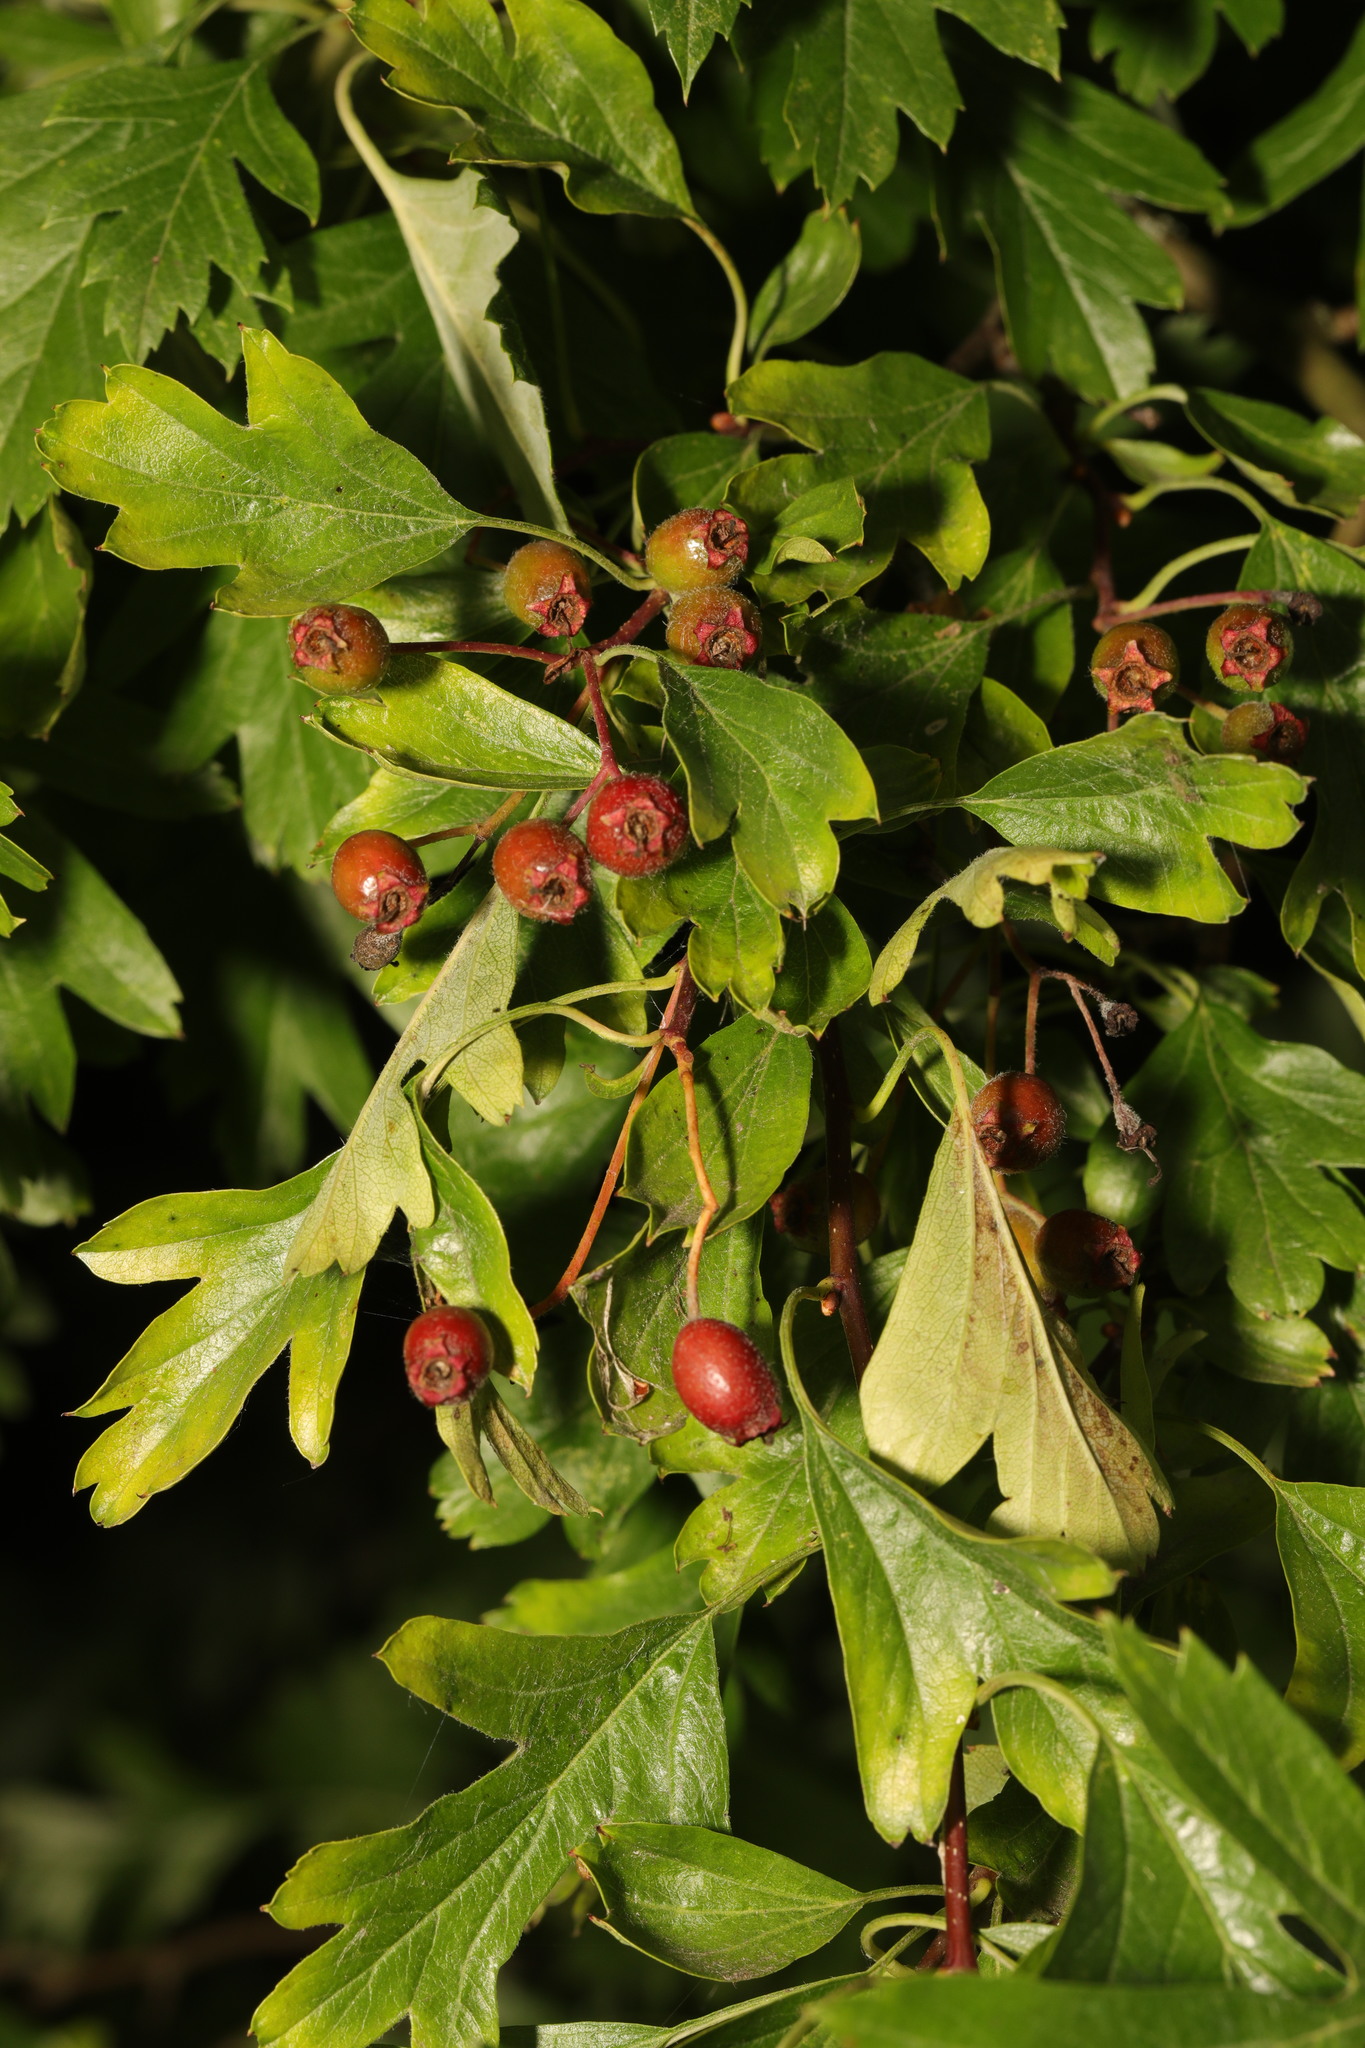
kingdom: Plantae
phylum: Tracheophyta
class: Magnoliopsida
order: Rosales
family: Rosaceae
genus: Crataegus
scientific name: Crataegus monogyna
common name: Hawthorn
